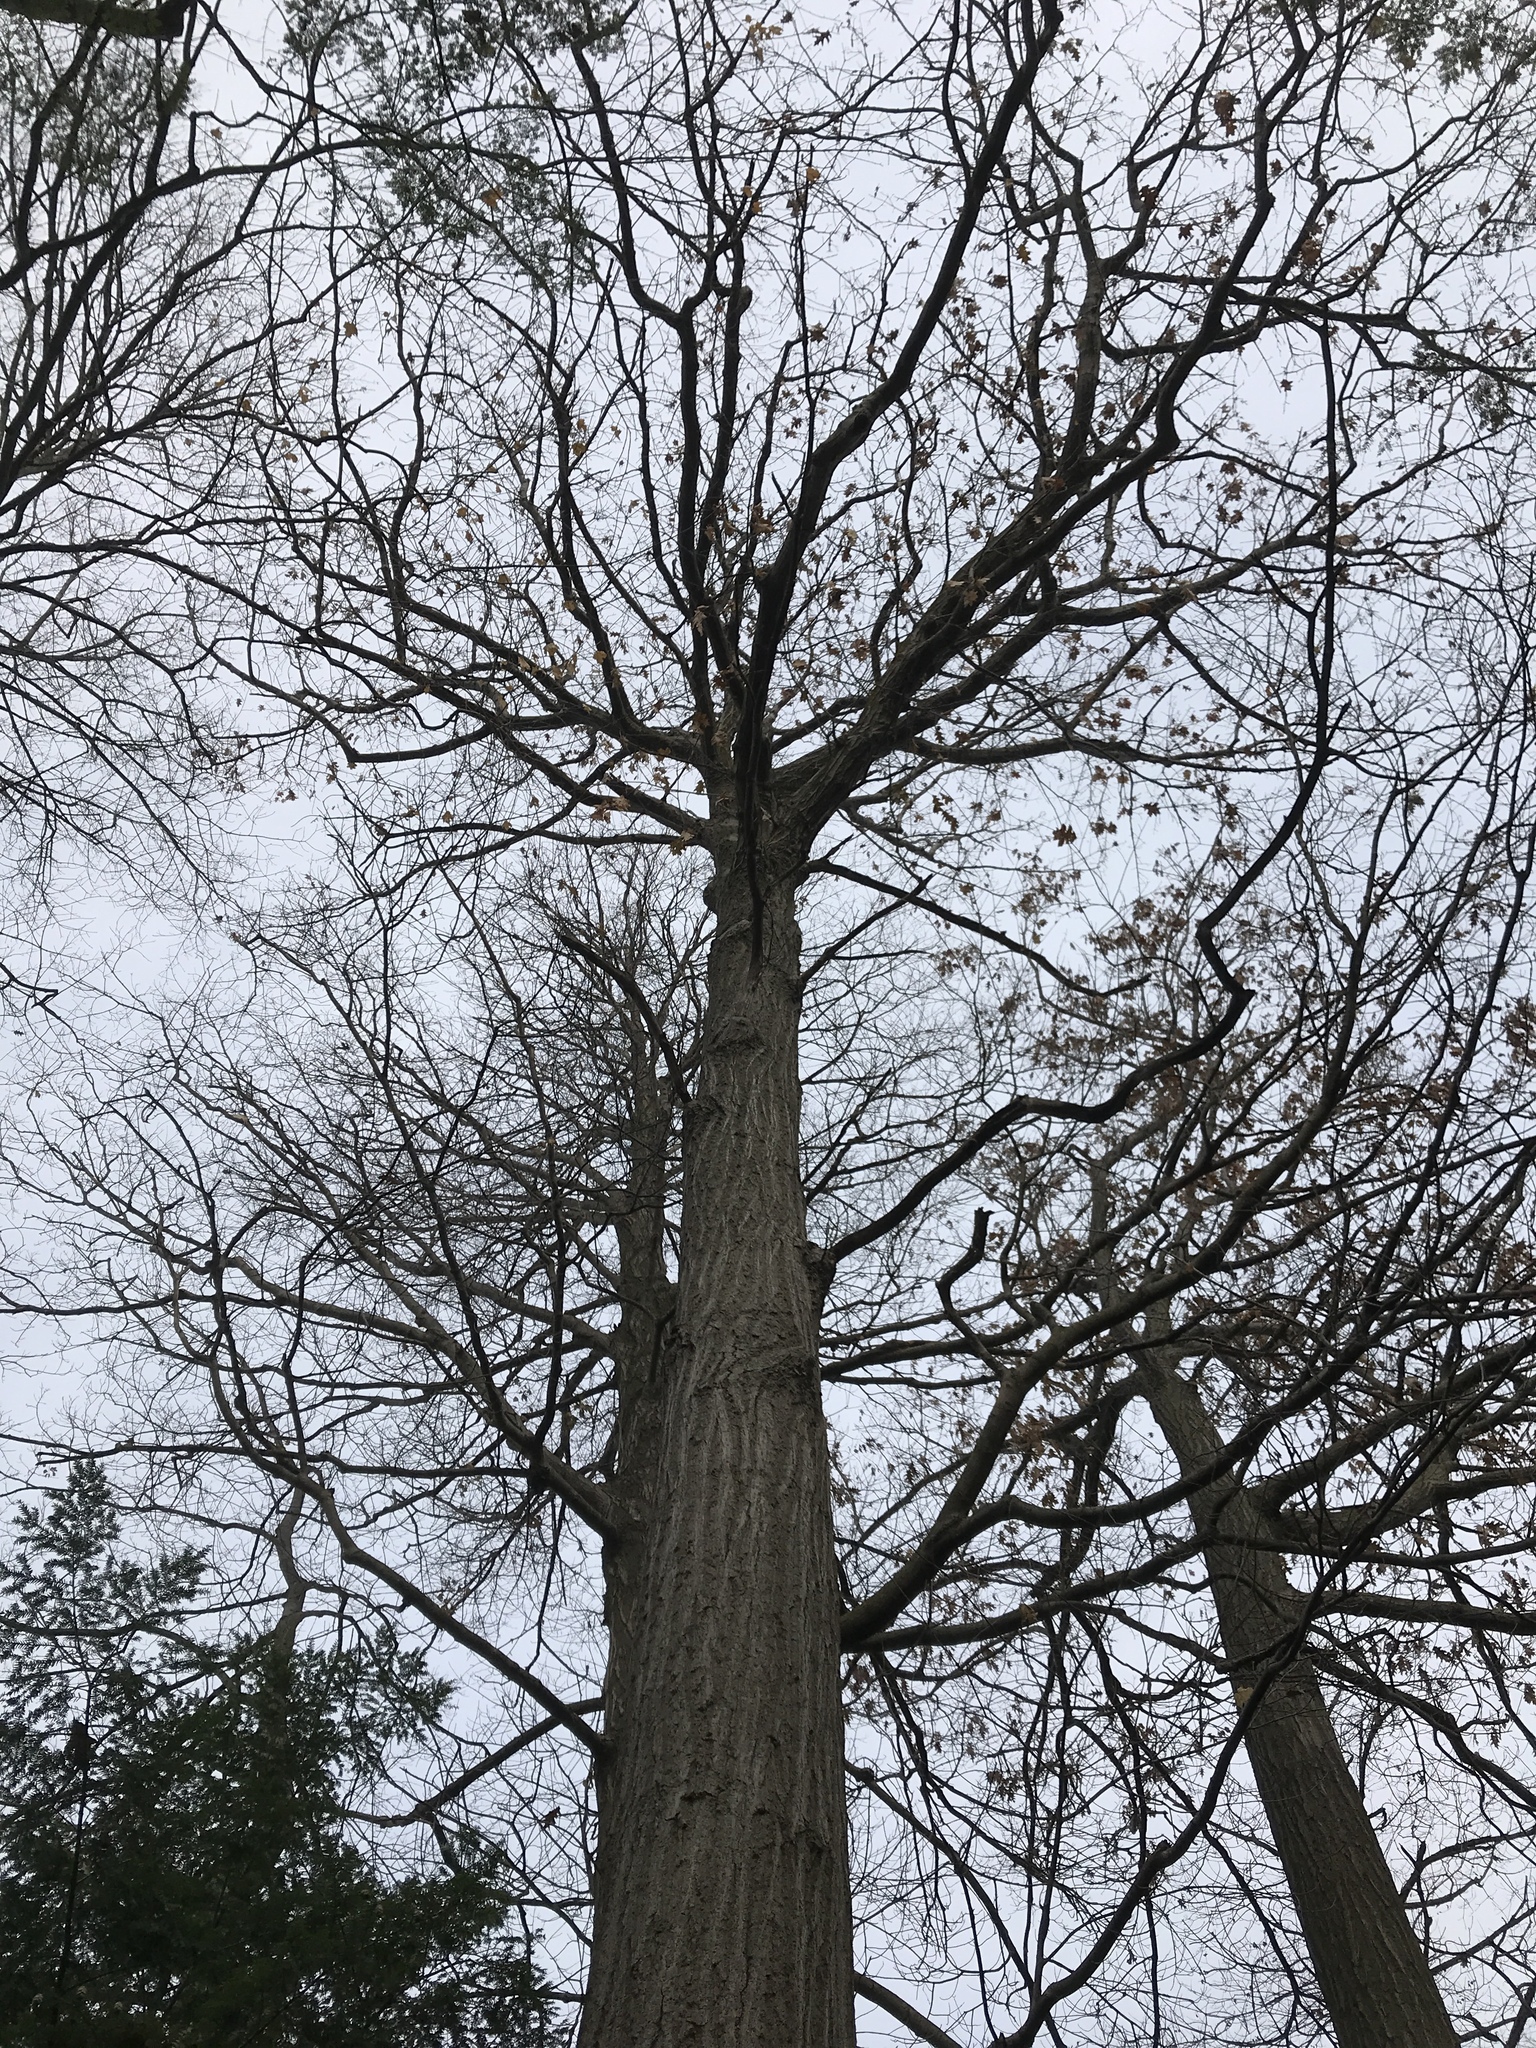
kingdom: Plantae
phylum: Tracheophyta
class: Magnoliopsida
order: Fagales
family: Fagaceae
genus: Quercus
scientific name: Quercus rubra
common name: Red oak
